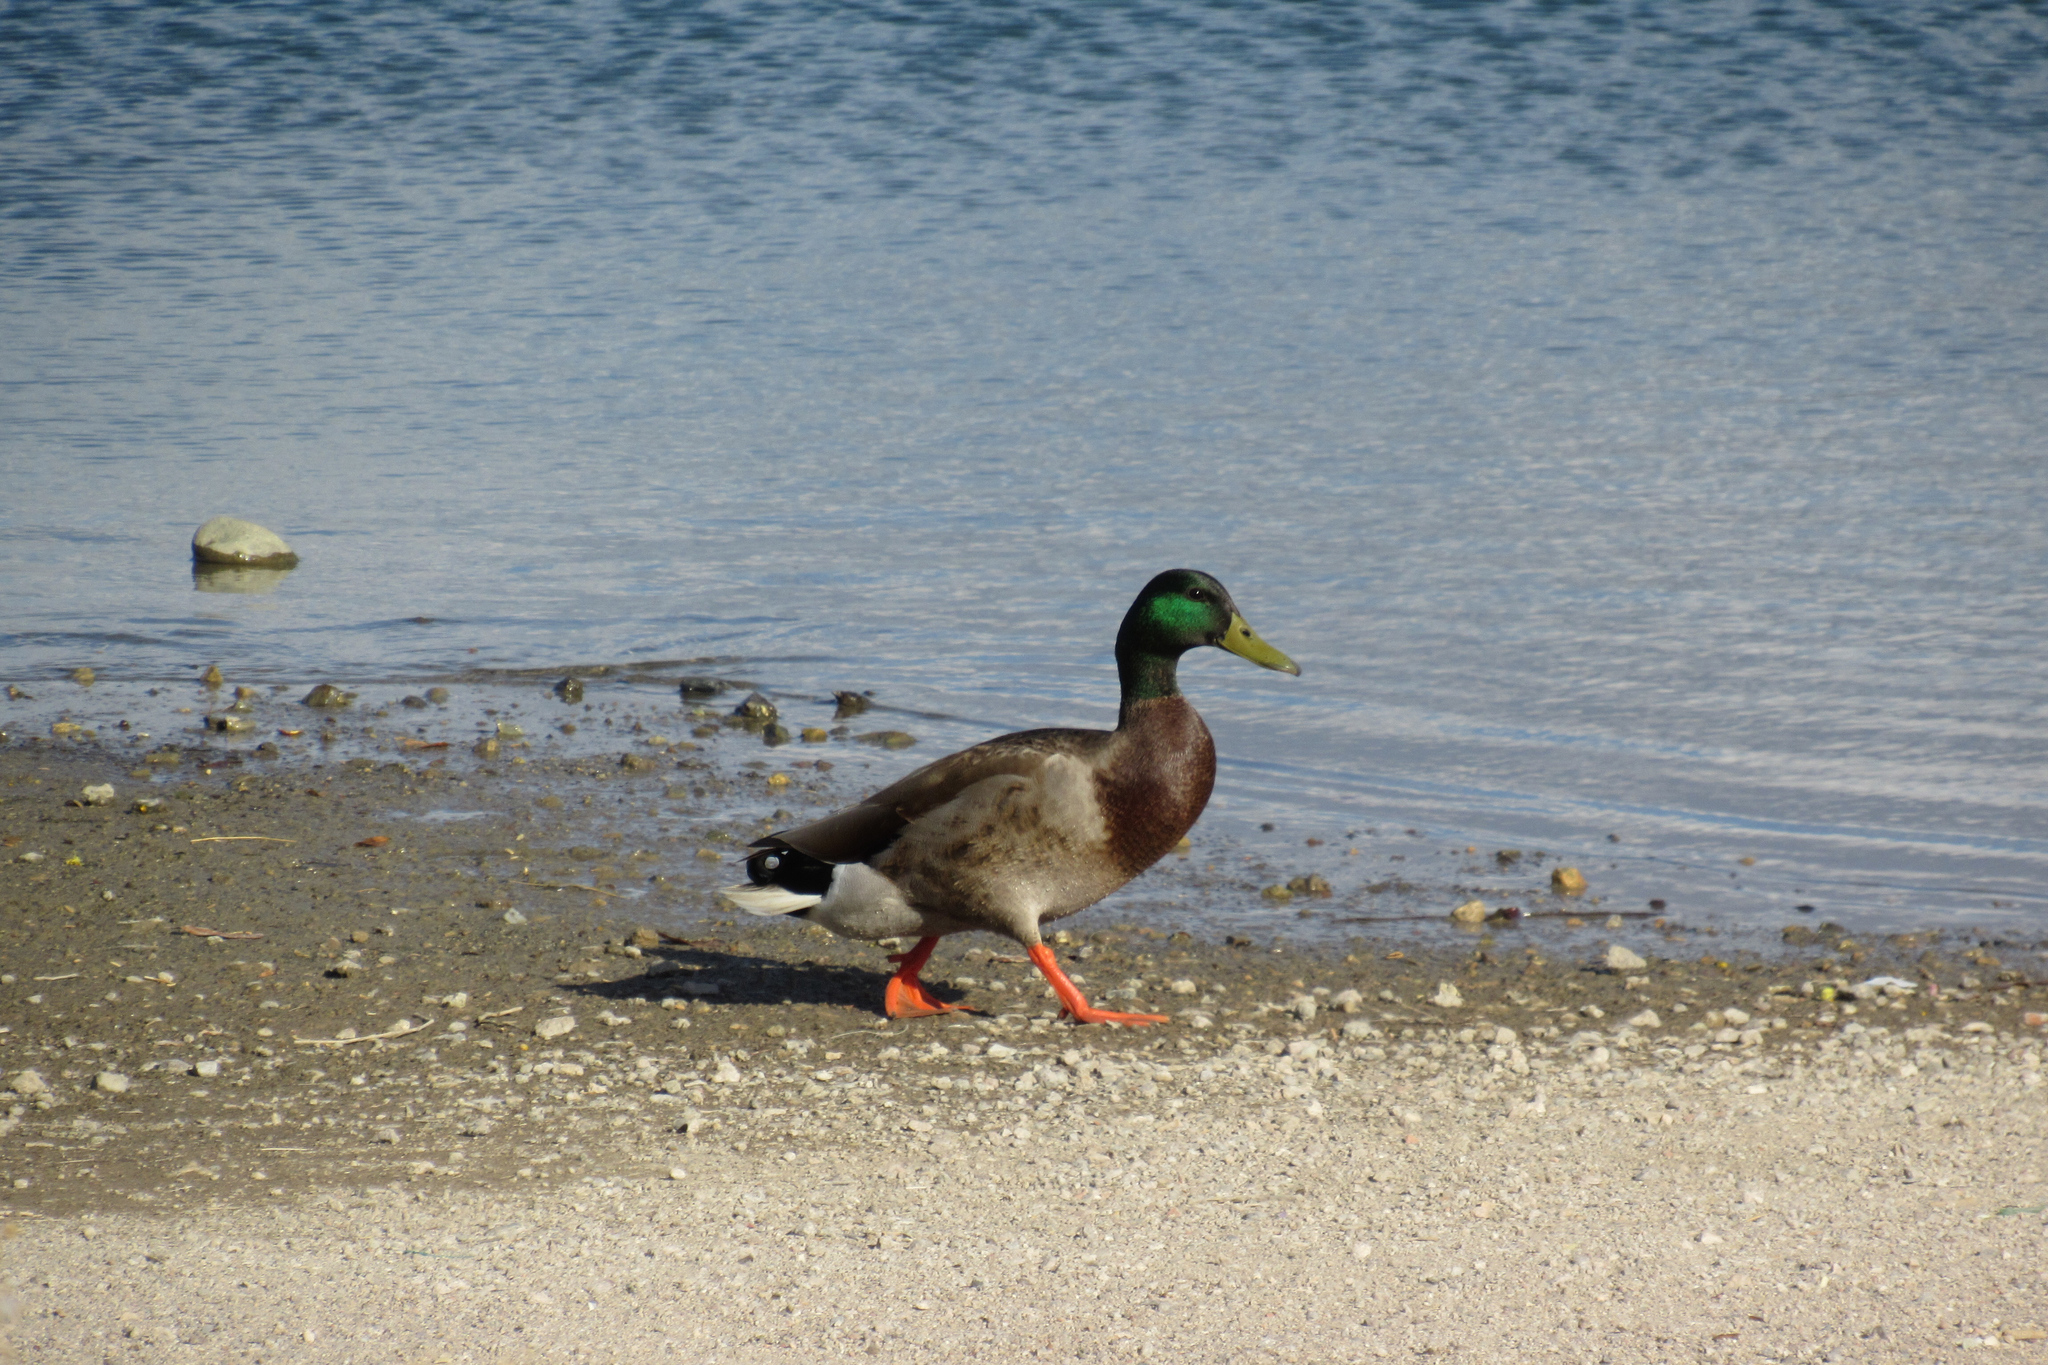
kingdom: Animalia
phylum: Chordata
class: Aves
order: Anseriformes
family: Anatidae
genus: Anas
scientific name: Anas platyrhynchos
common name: Mallard
